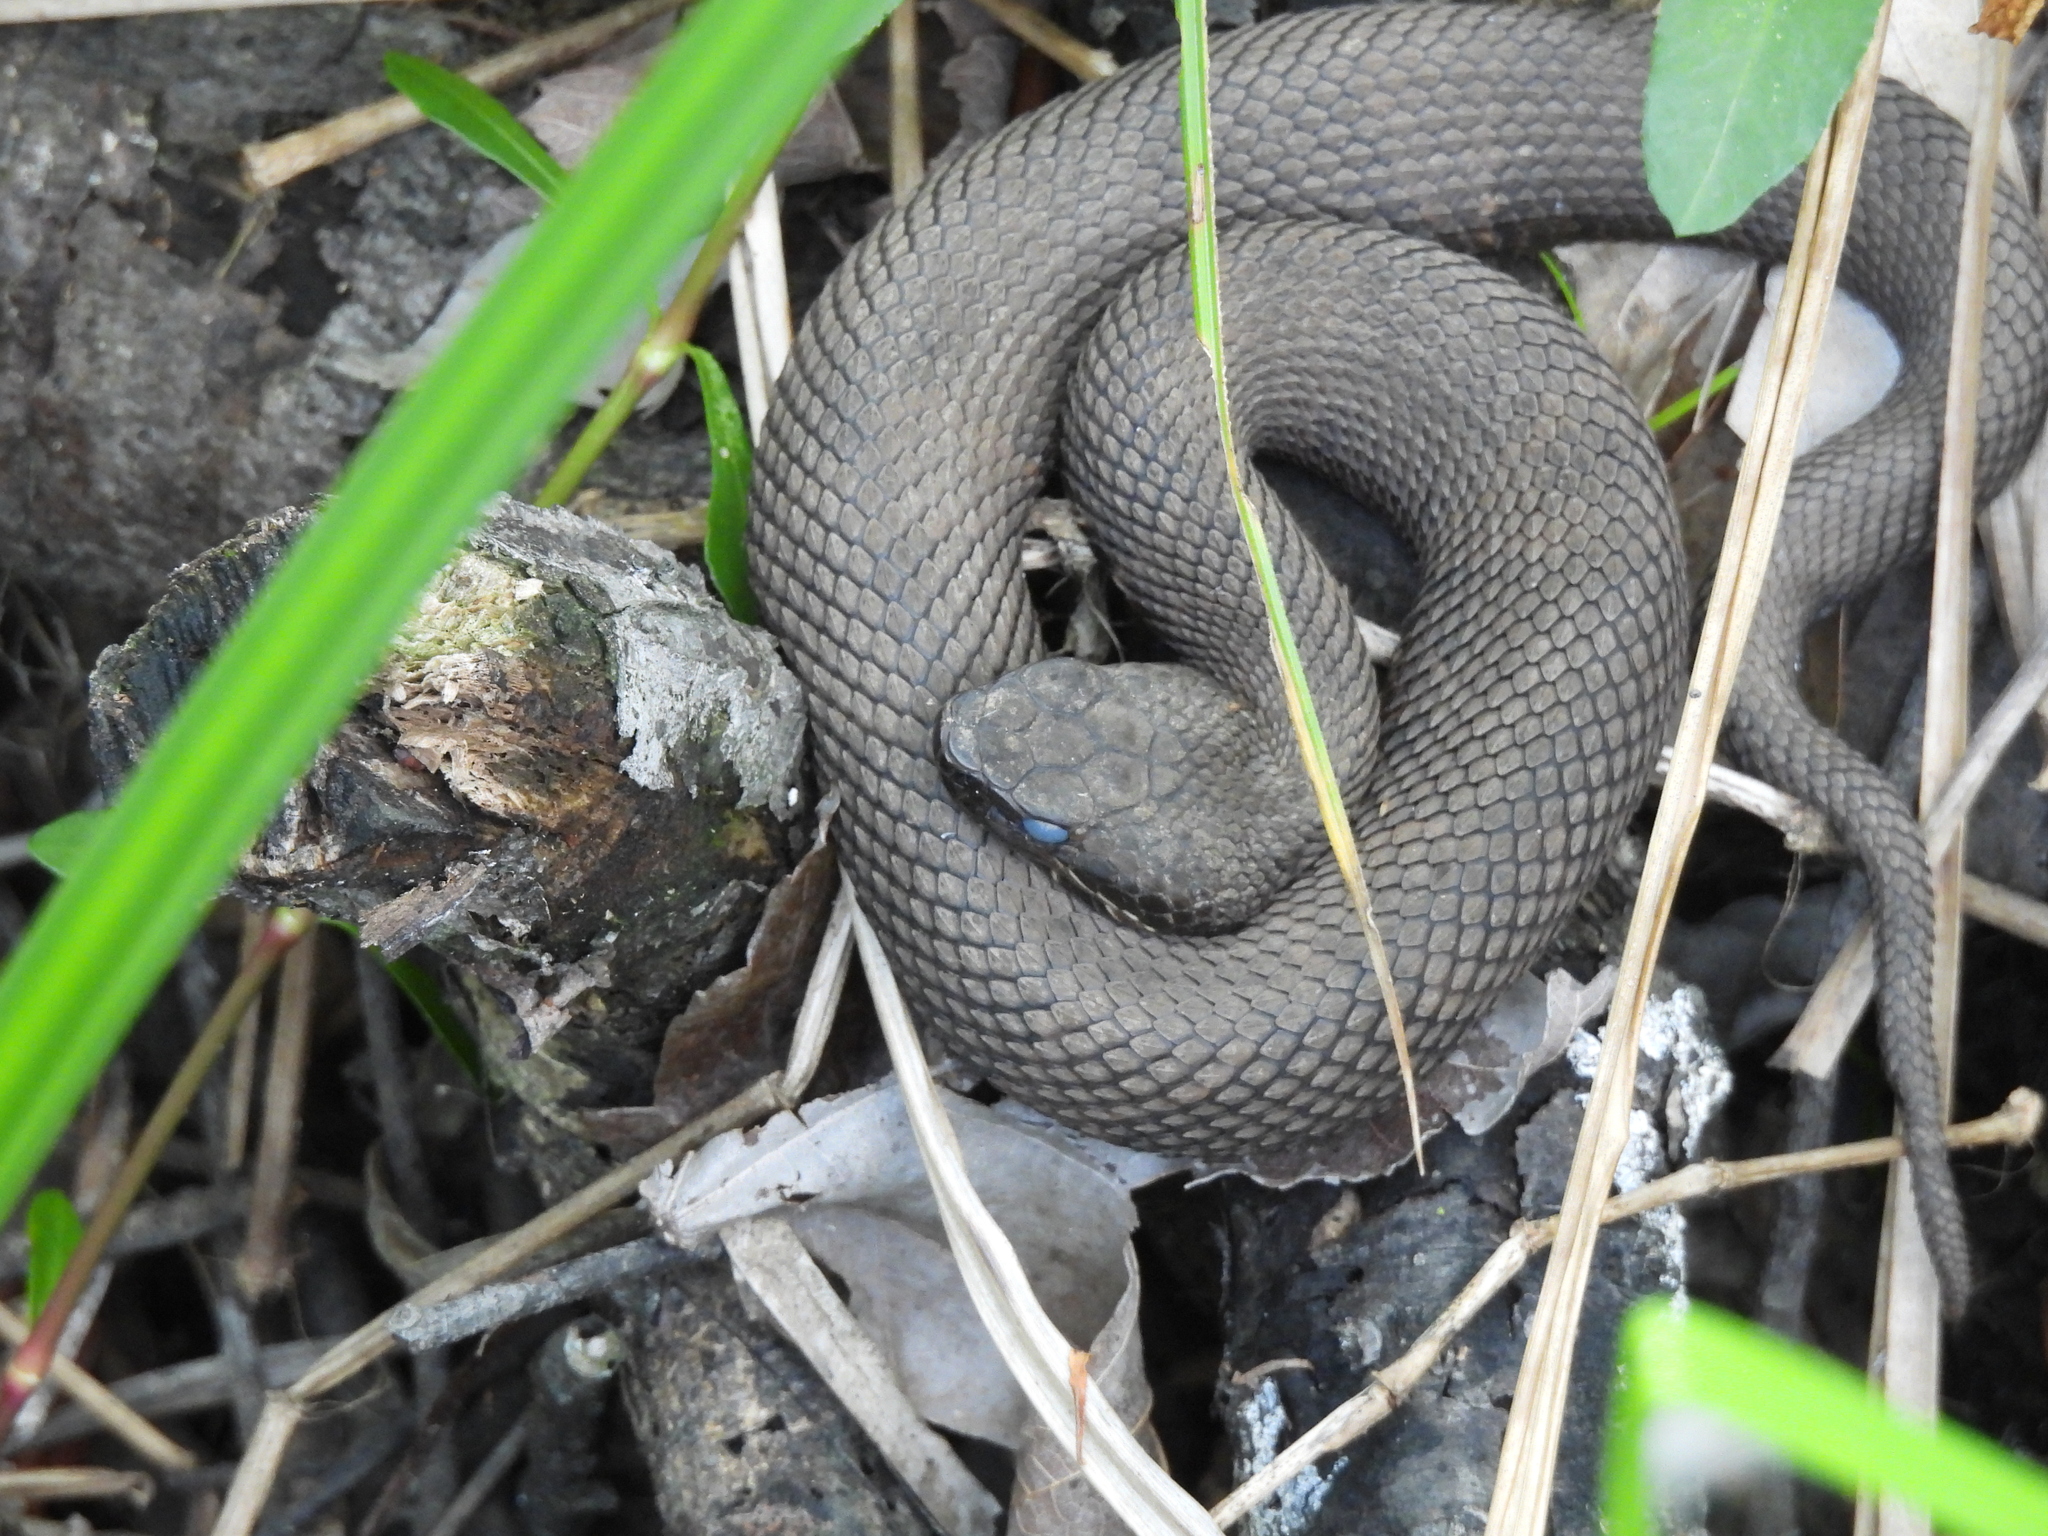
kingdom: Animalia
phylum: Chordata
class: Squamata
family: Viperidae
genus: Agkistrodon
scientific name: Agkistrodon piscivorus
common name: Cottonmouth
